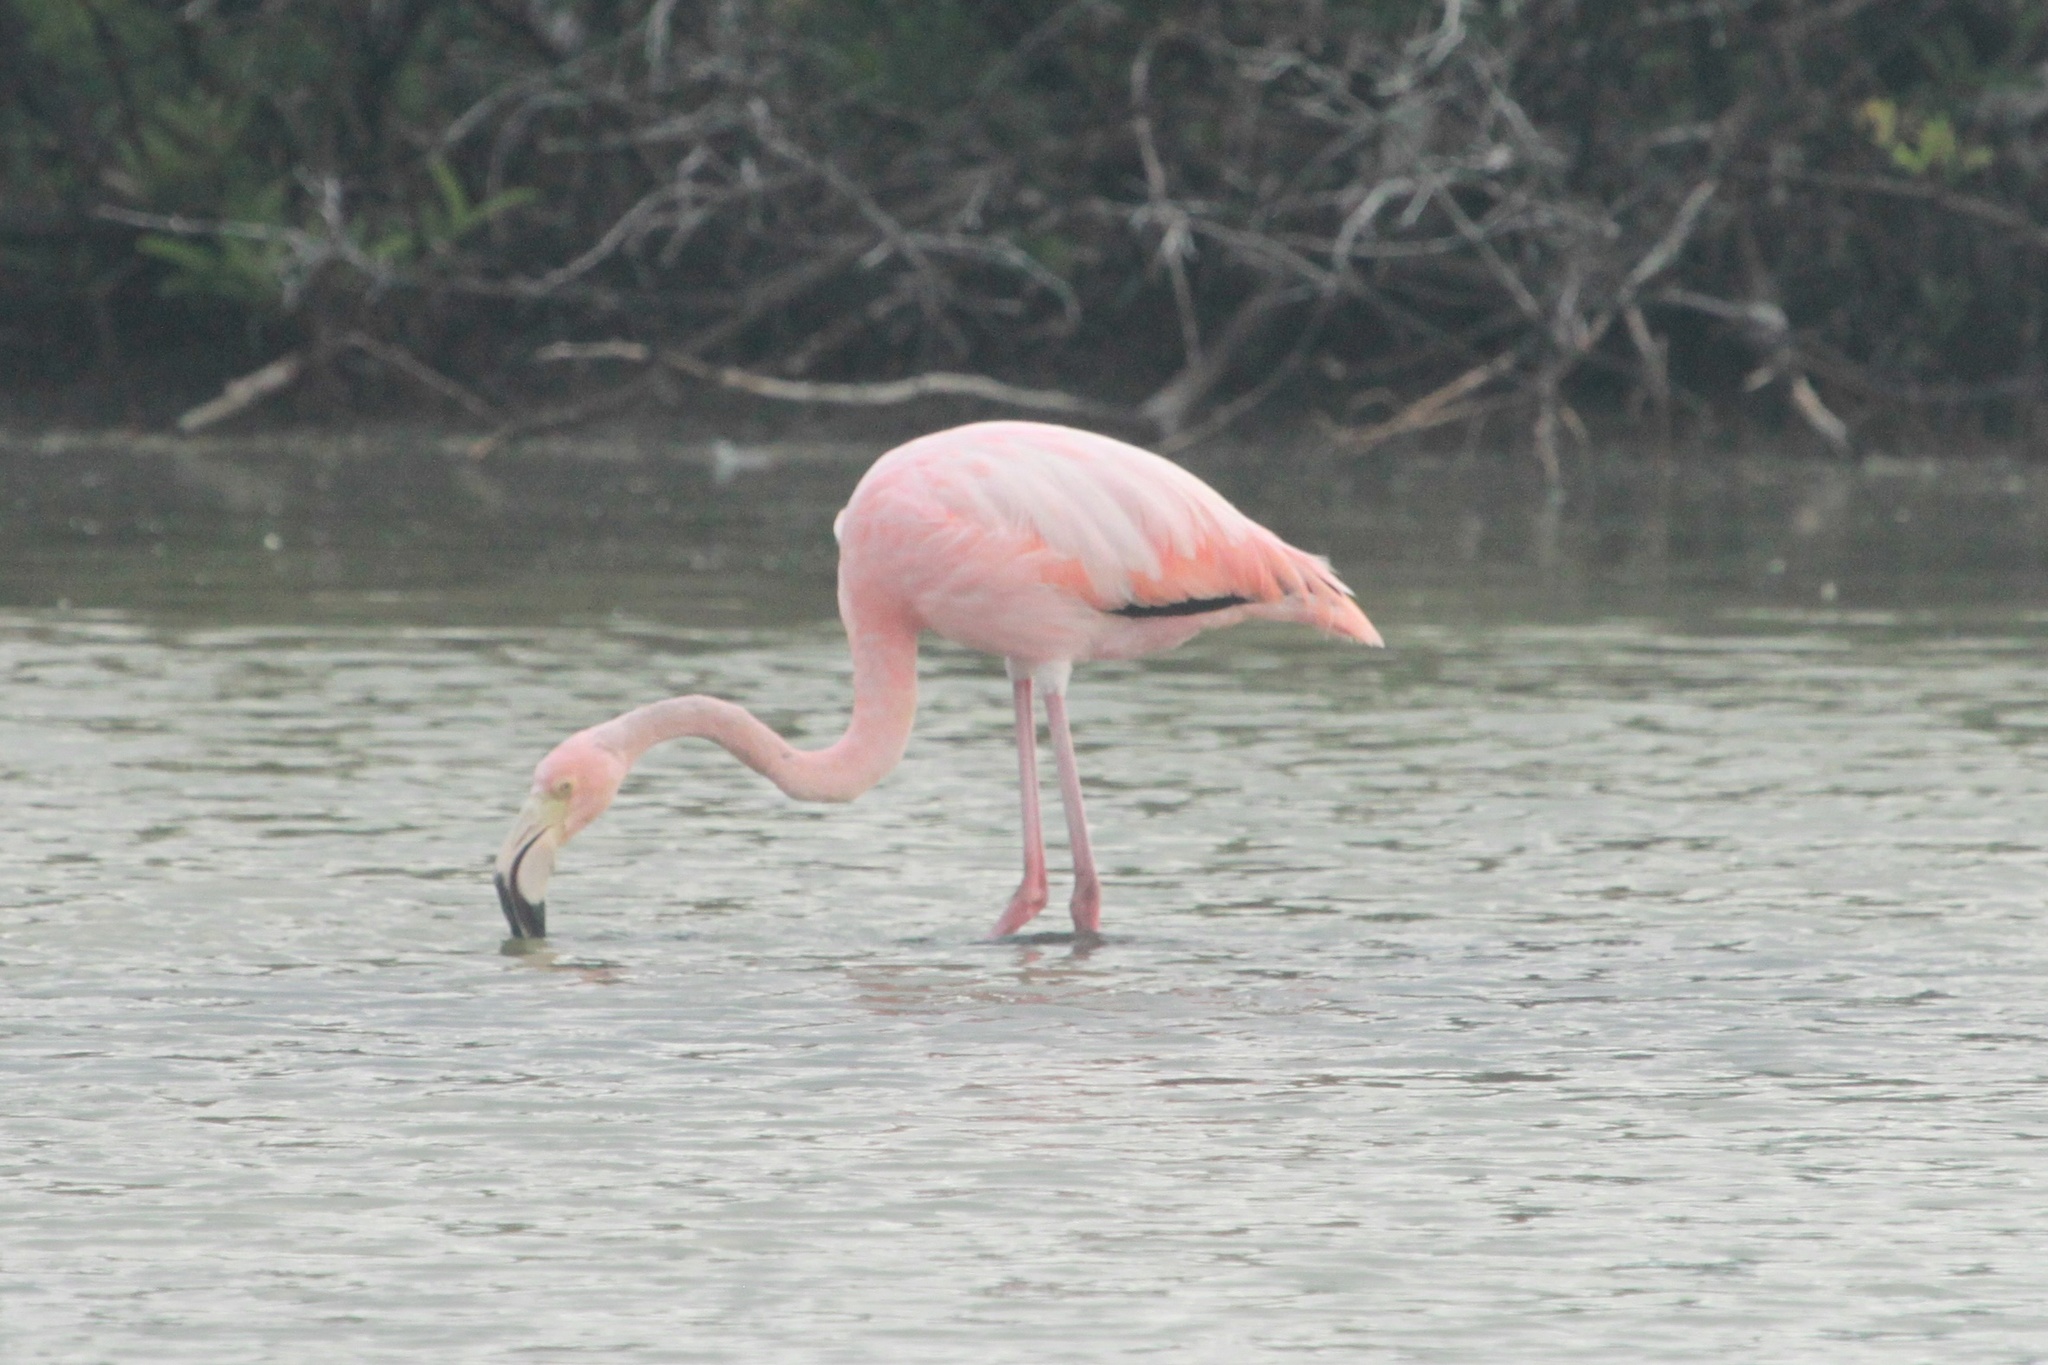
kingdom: Animalia
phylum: Chordata
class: Aves
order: Phoenicopteriformes
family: Phoenicopteridae
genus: Phoenicopterus
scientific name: Phoenicopterus ruber
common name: American flamingo
